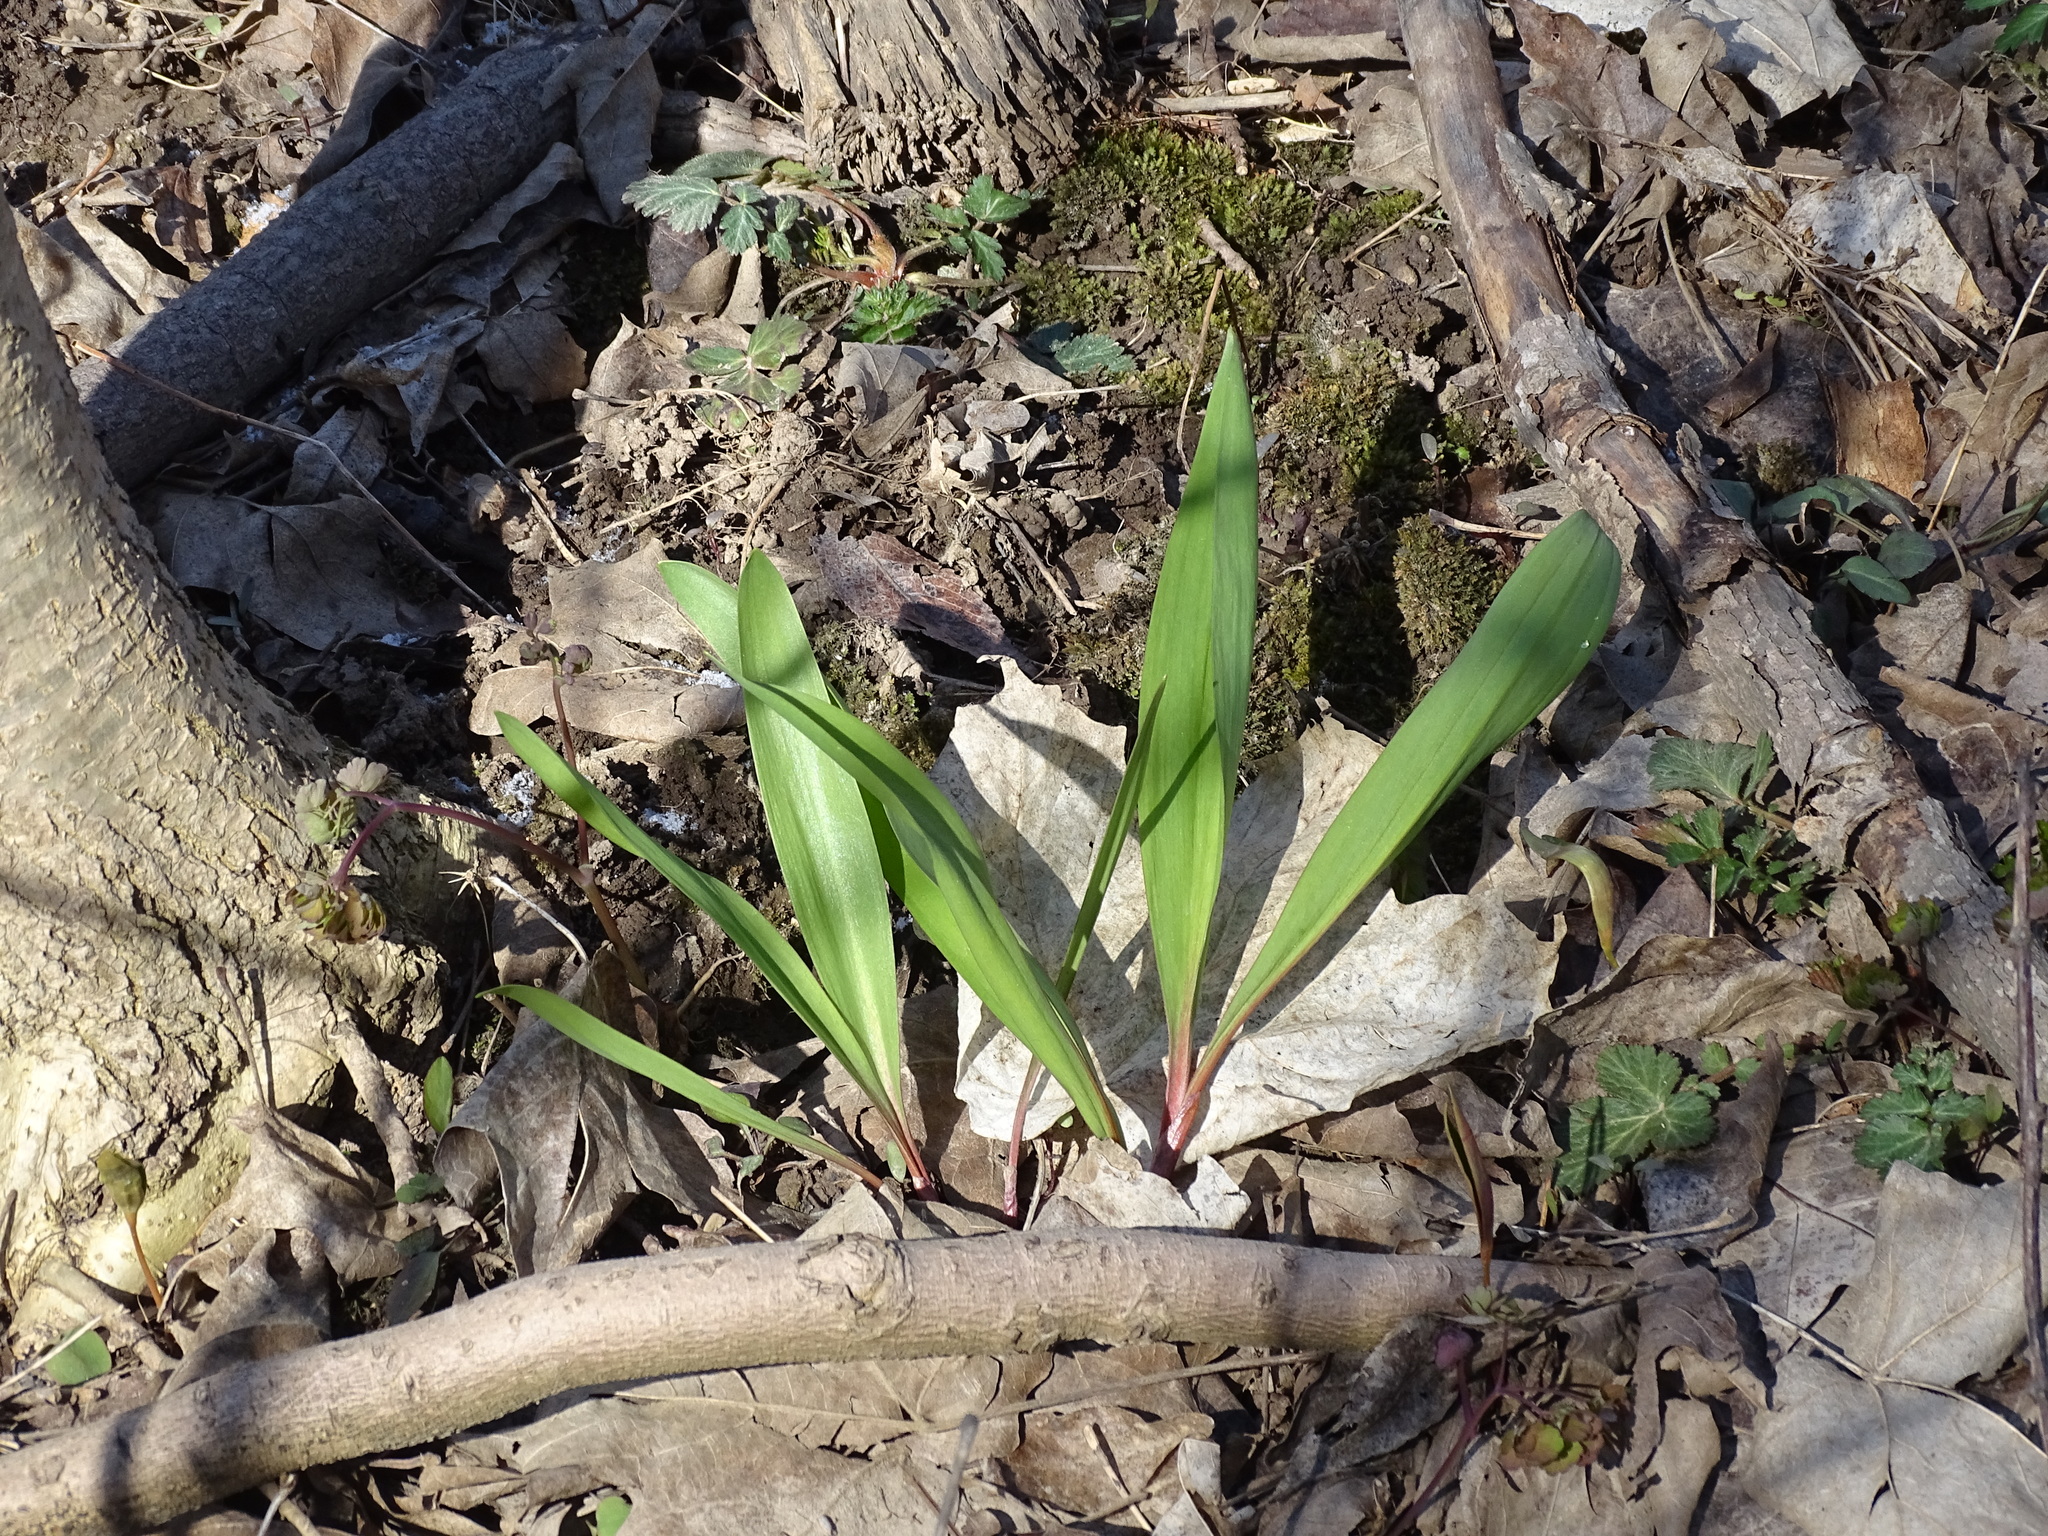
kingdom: Plantae
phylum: Tracheophyta
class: Liliopsida
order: Asparagales
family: Amaryllidaceae
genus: Allium
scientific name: Allium tricoccum
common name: Ramp
